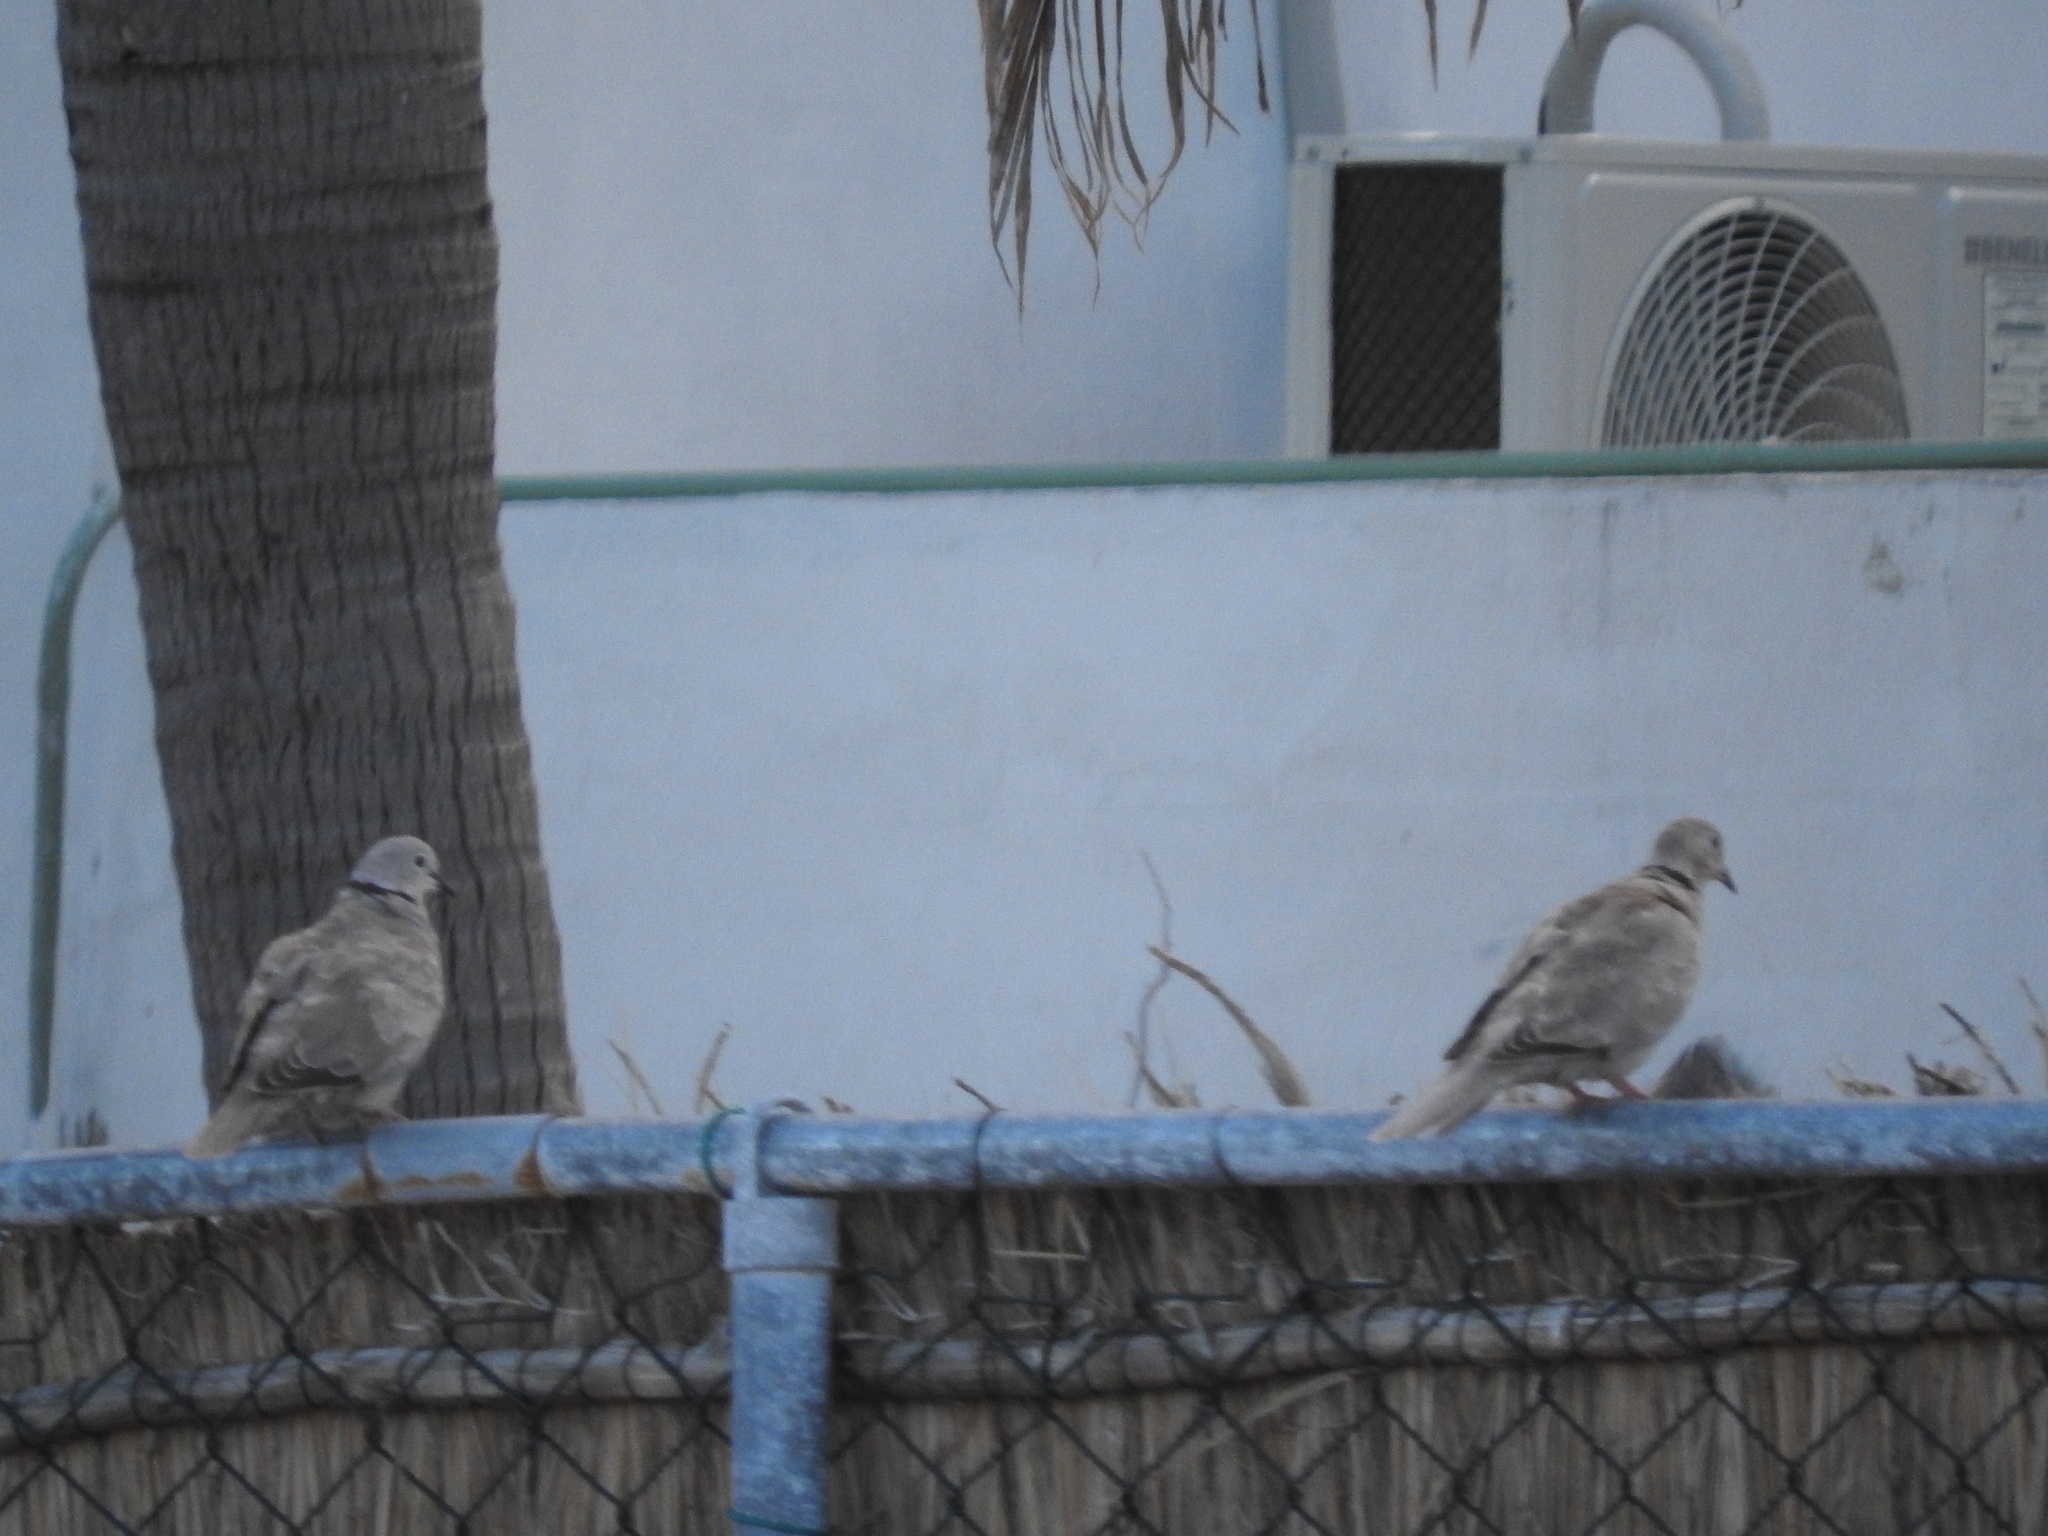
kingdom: Animalia
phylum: Chordata
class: Aves
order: Columbiformes
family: Columbidae
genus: Streptopelia
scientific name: Streptopelia decaocto
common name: Eurasian collared dove
